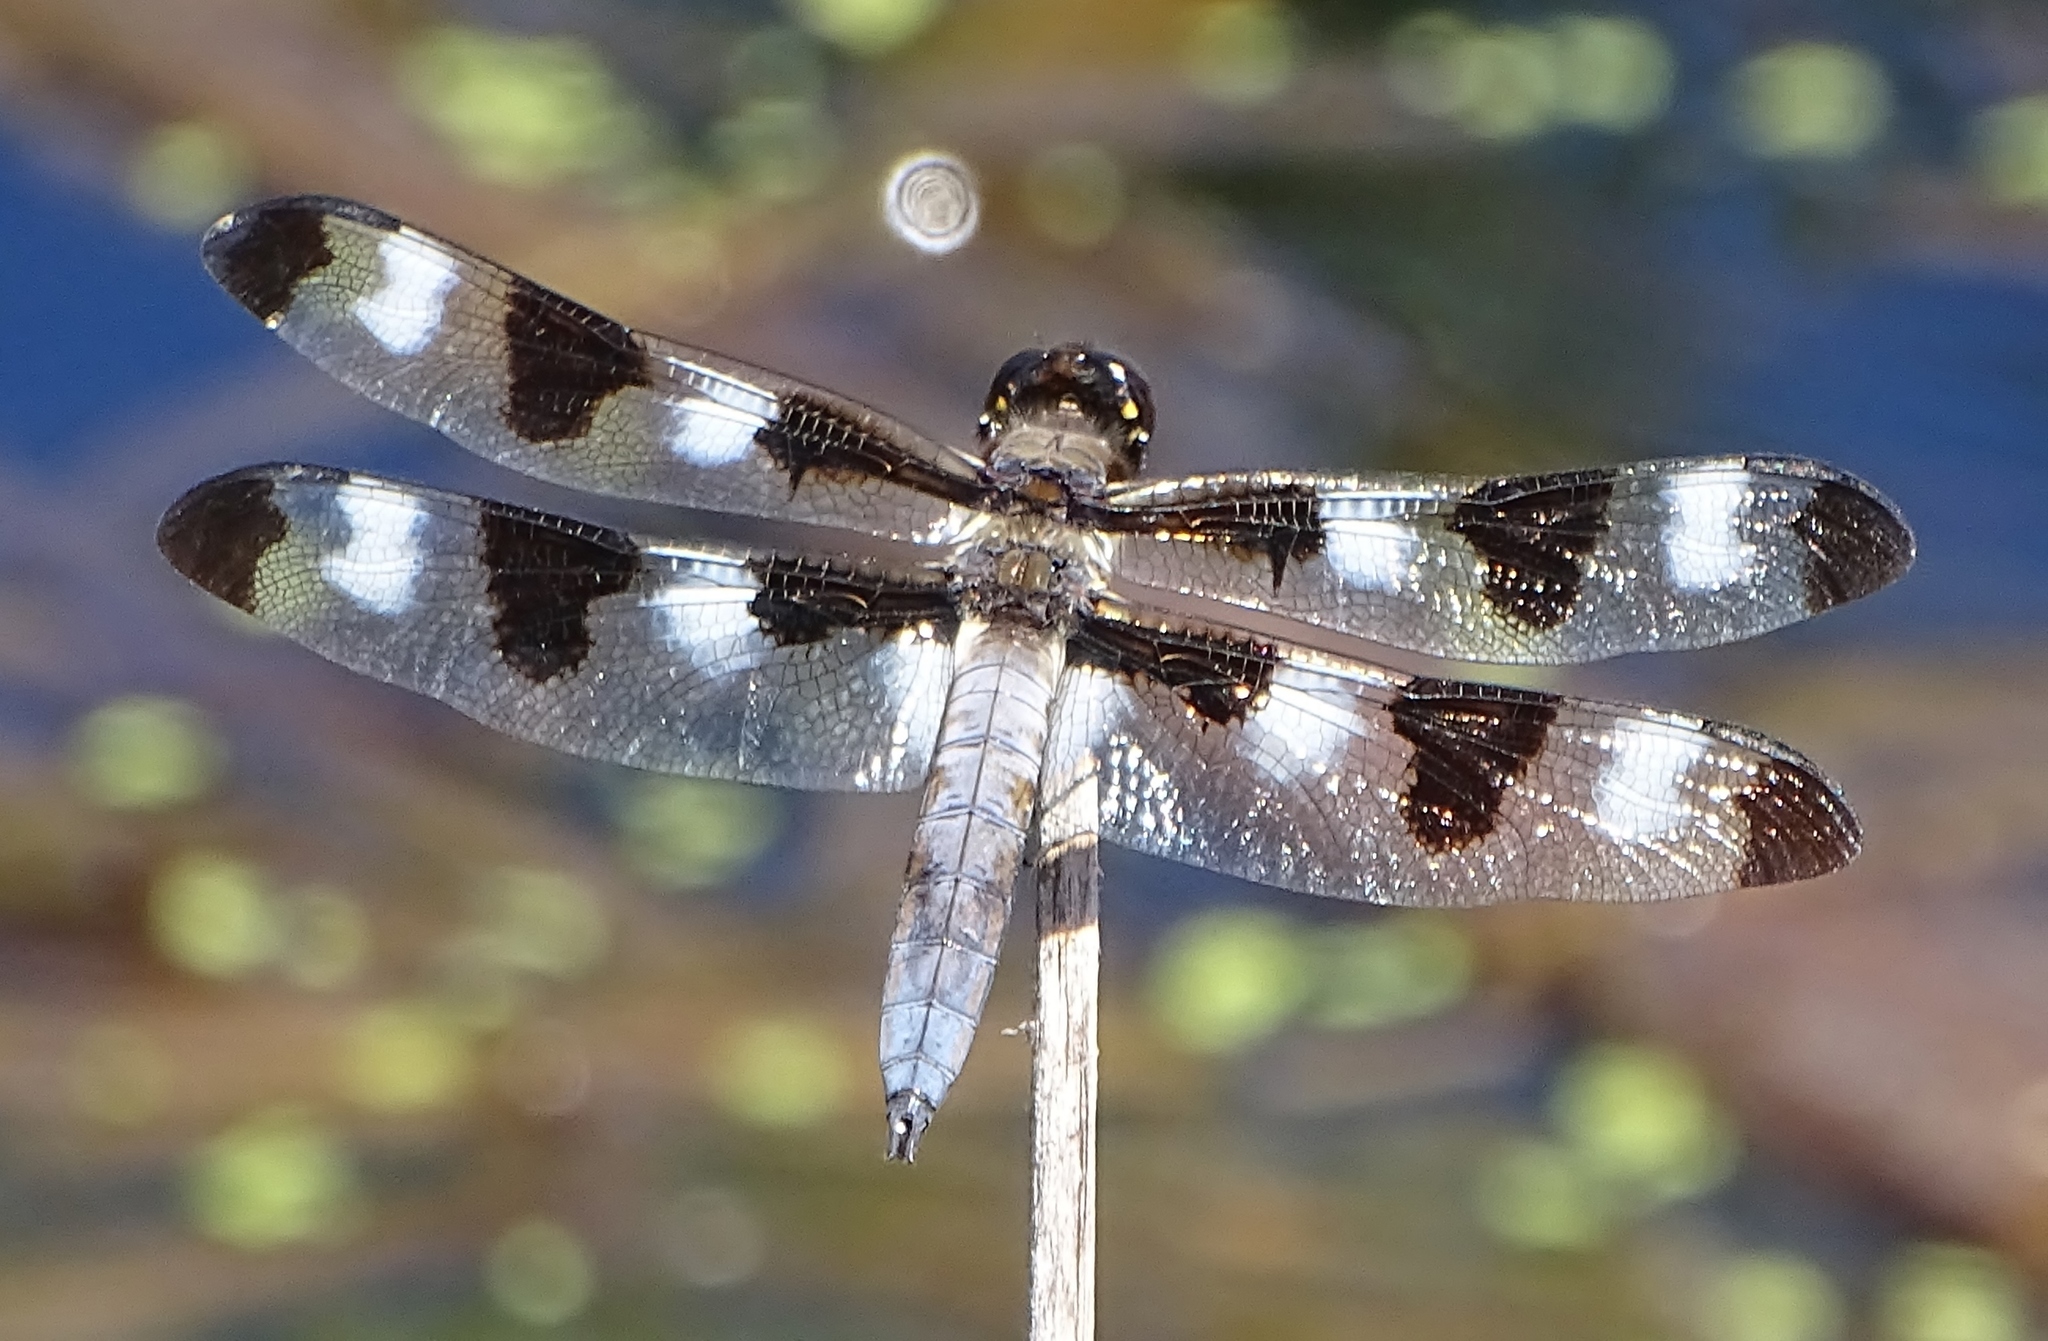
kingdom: Animalia
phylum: Arthropoda
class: Insecta
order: Odonata
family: Libellulidae
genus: Libellula
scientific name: Libellula pulchella
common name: Twelve-spotted skimmer
